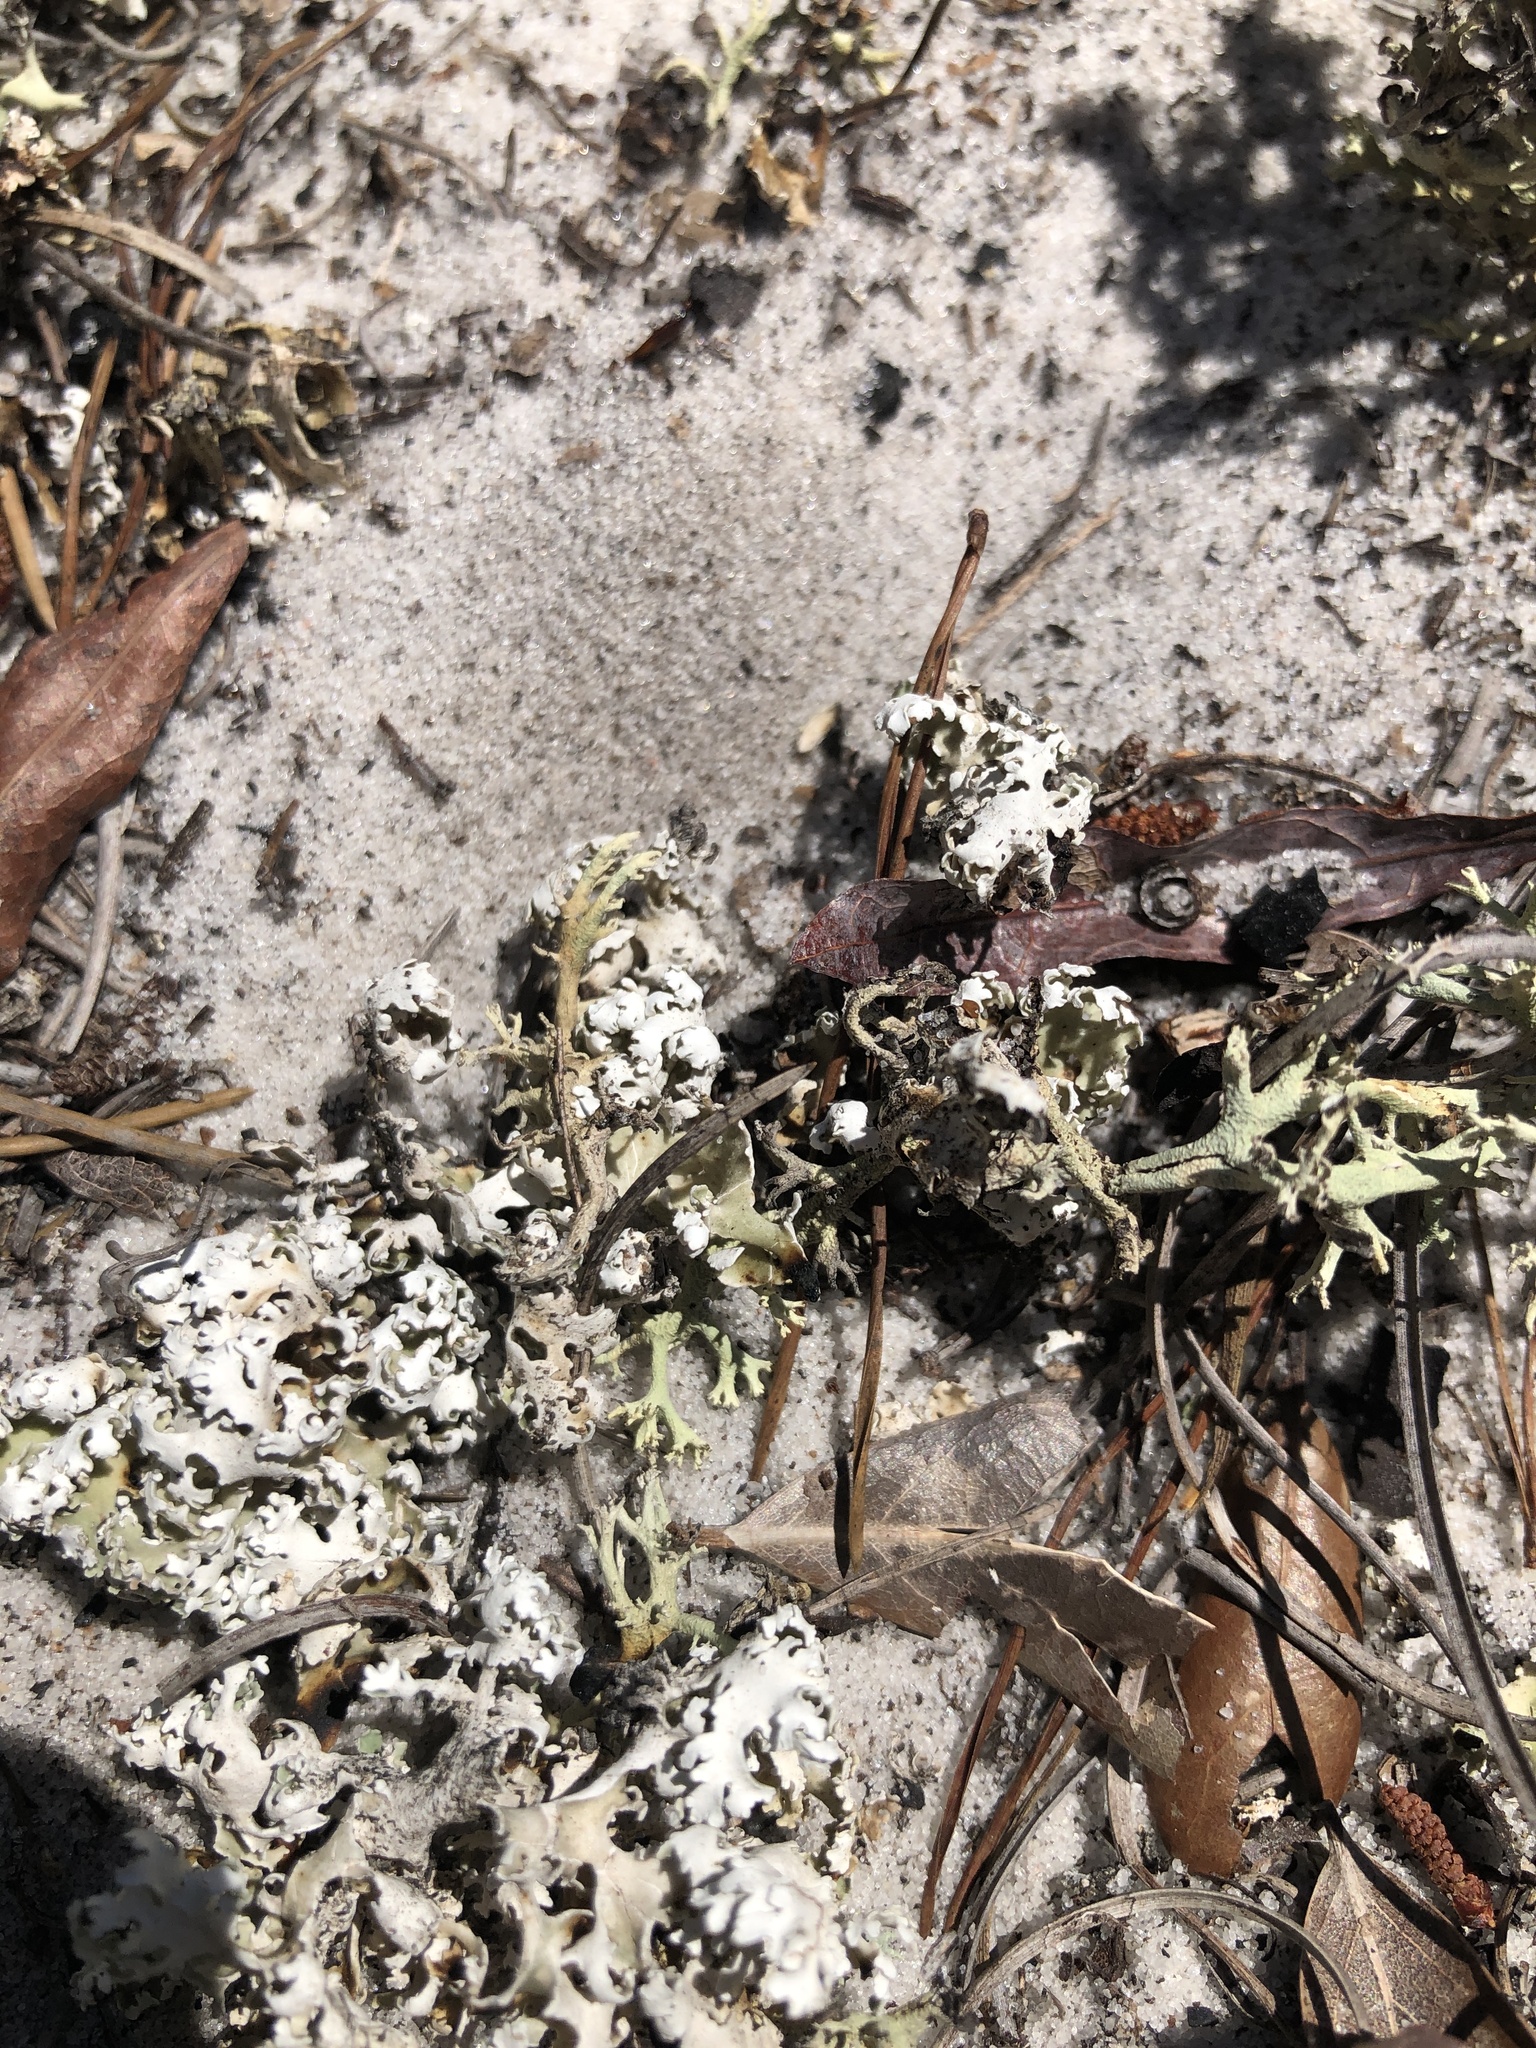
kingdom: Fungi
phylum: Ascomycota
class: Lecanoromycetes
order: Lecanorales
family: Cladoniaceae
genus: Cladonia
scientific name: Cladonia prostrata
